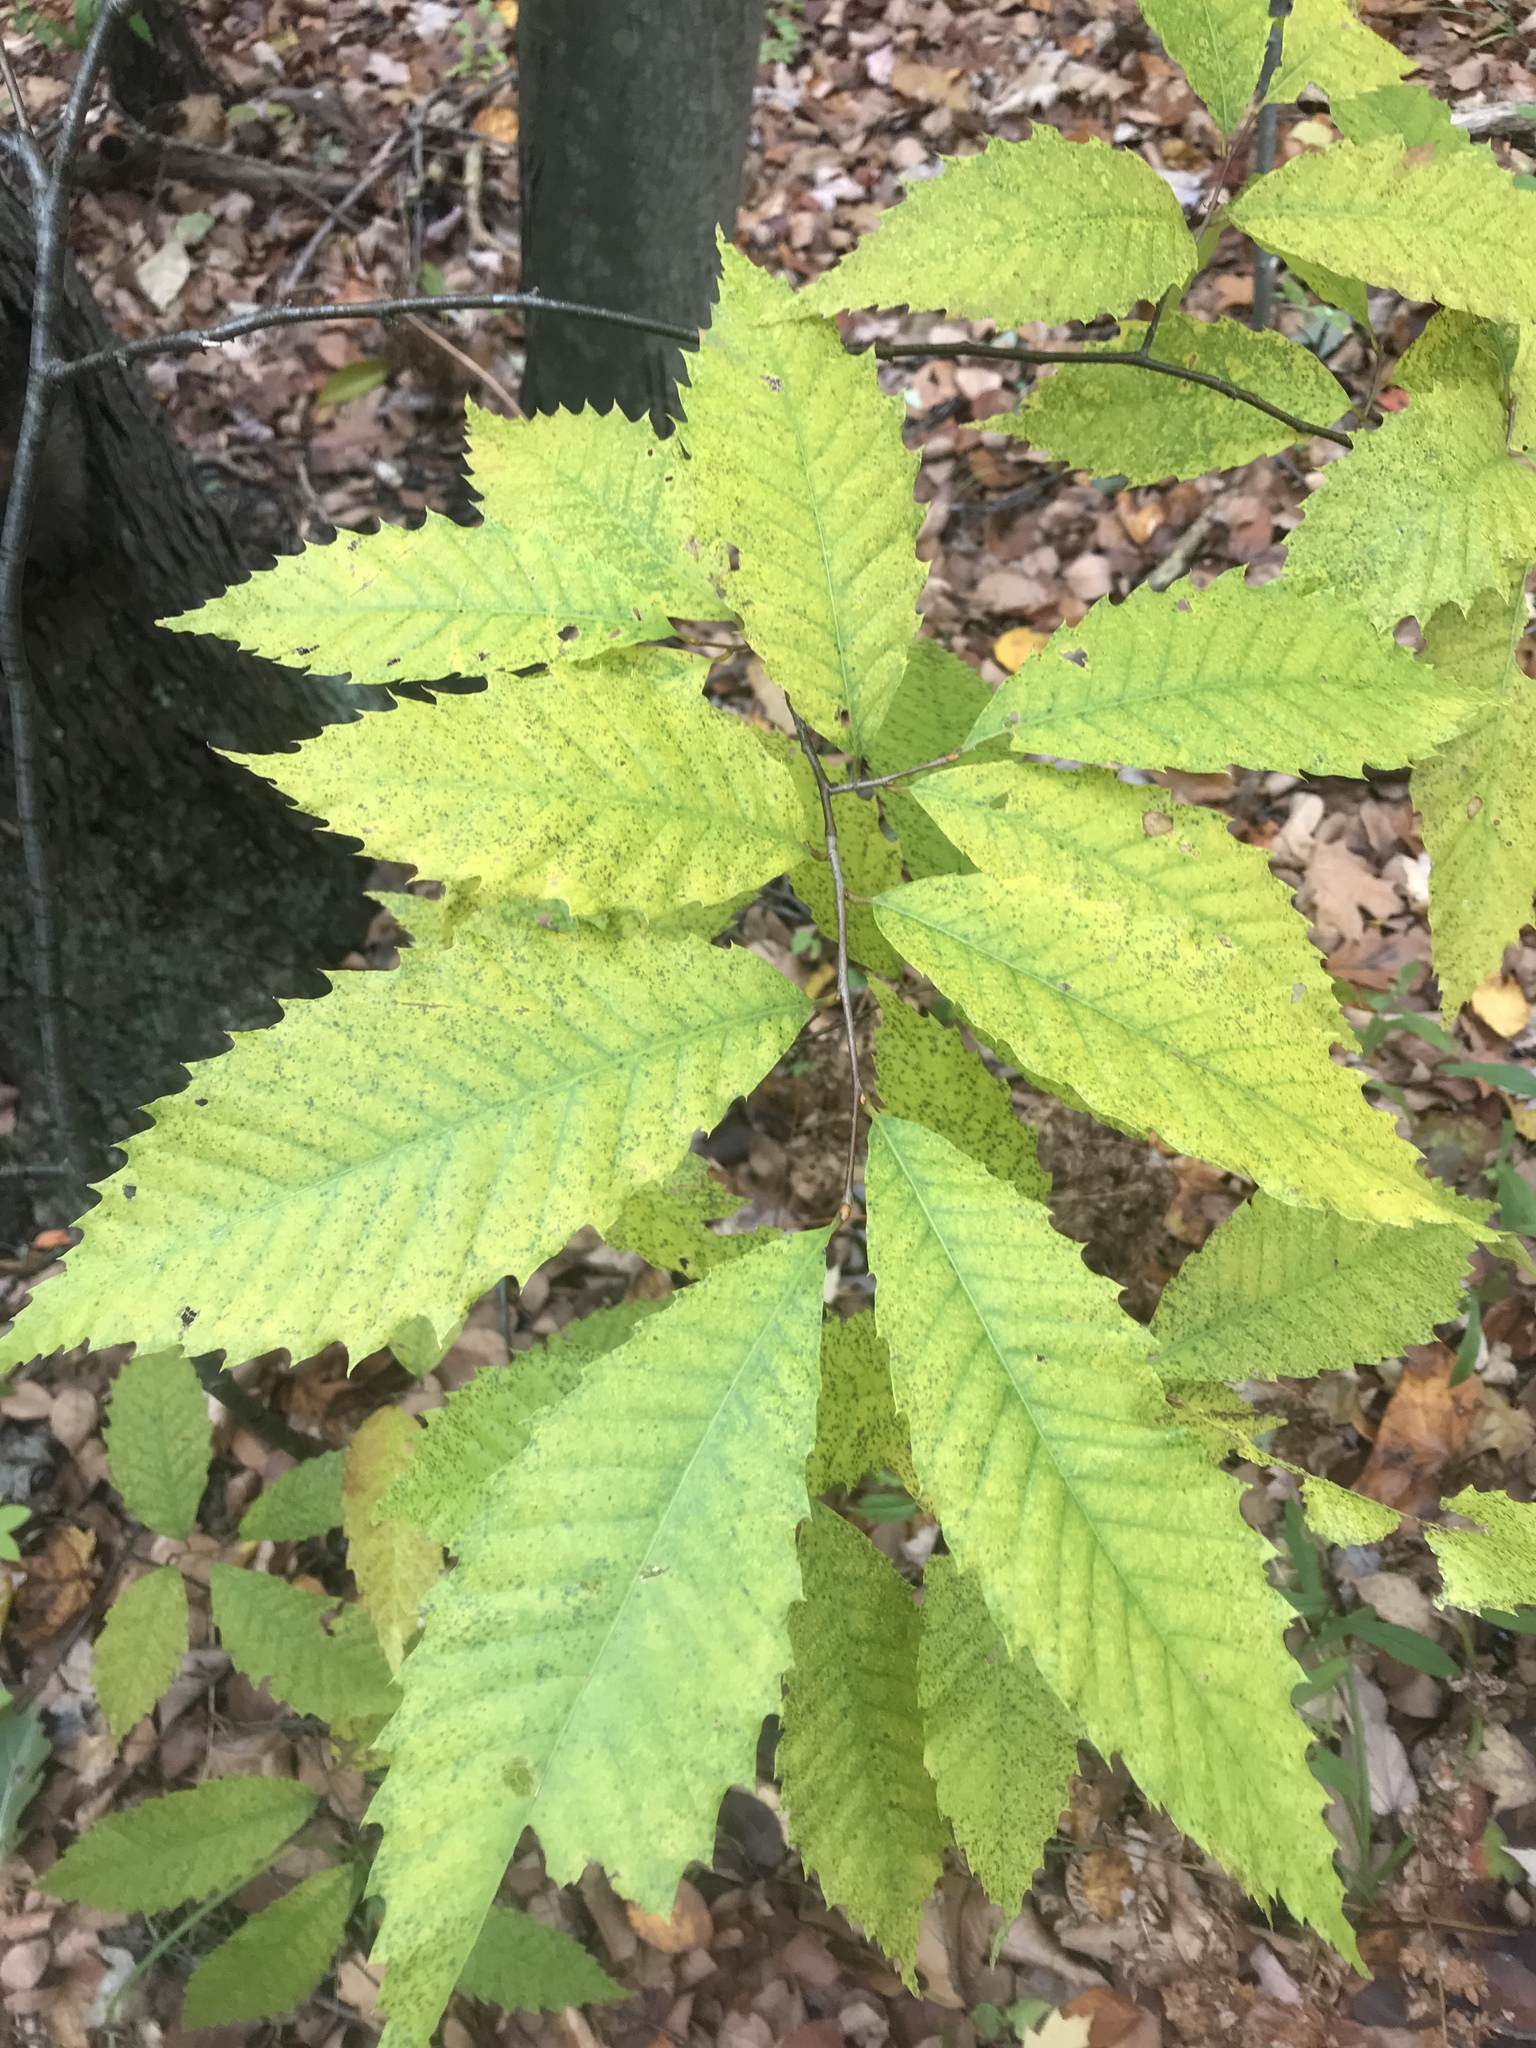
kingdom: Plantae
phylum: Tracheophyta
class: Magnoliopsida
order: Fagales
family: Fagaceae
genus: Castanea
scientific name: Castanea dentata
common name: American chestnut
